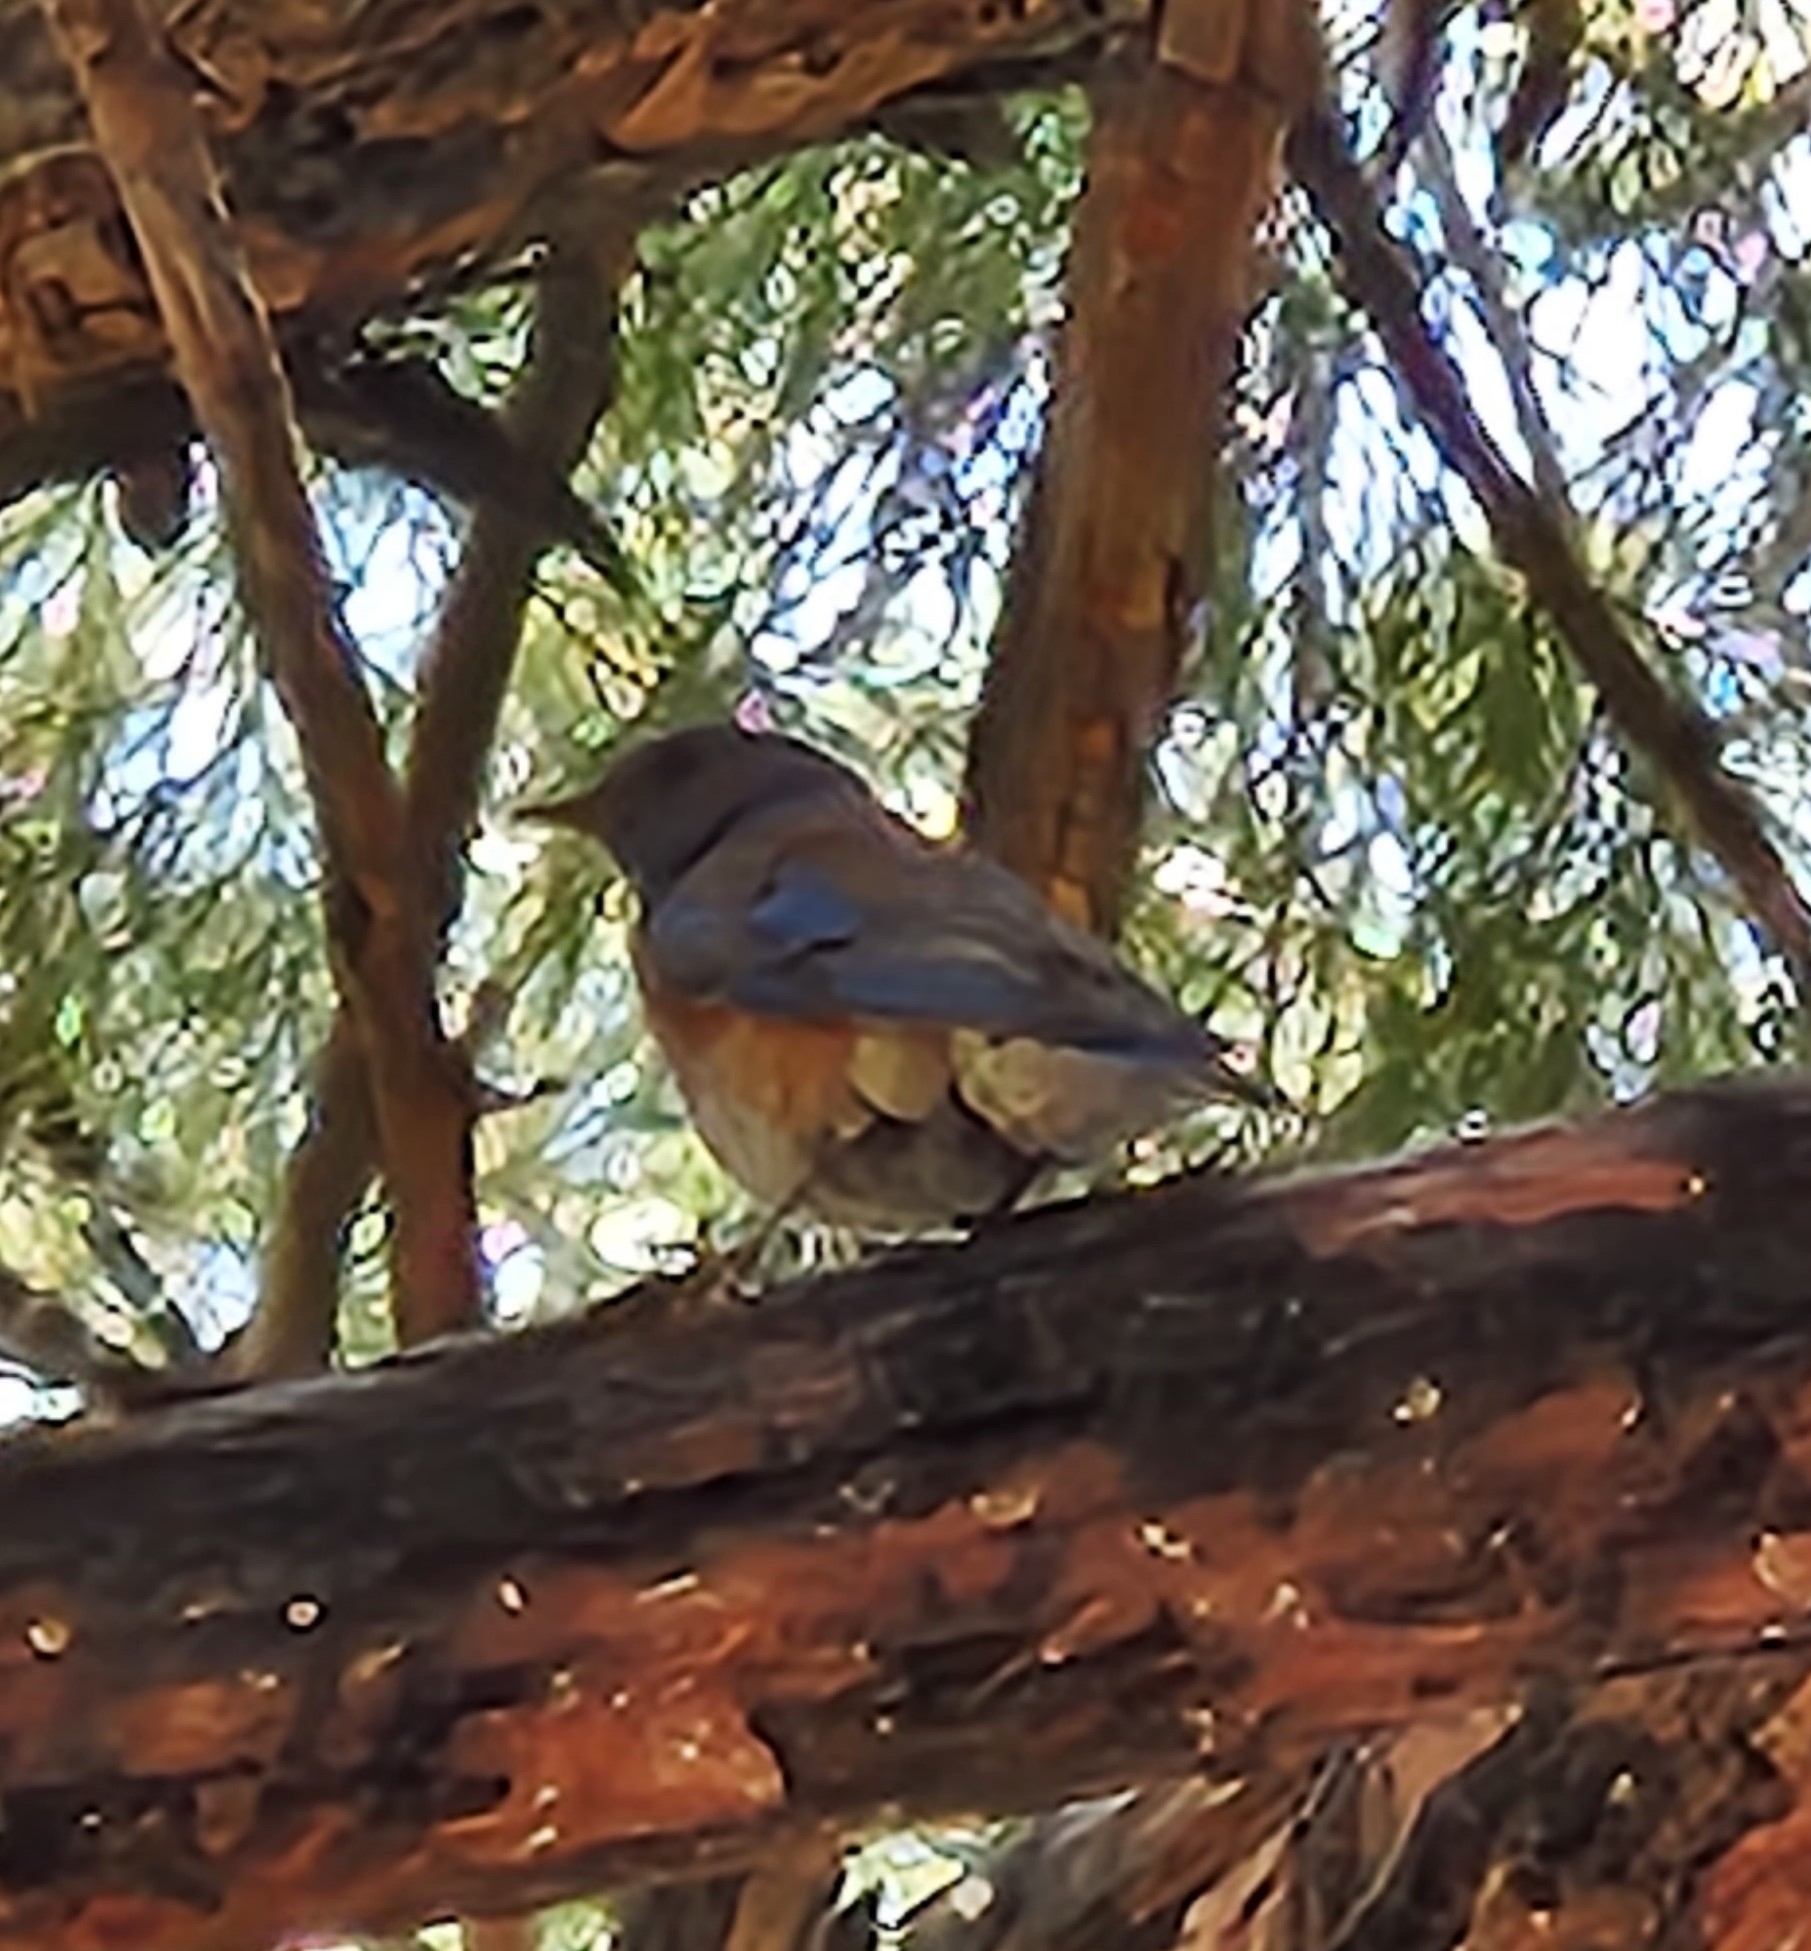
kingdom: Animalia
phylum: Chordata
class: Aves
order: Passeriformes
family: Turdidae
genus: Sialia
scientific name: Sialia mexicana
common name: Western bluebird
